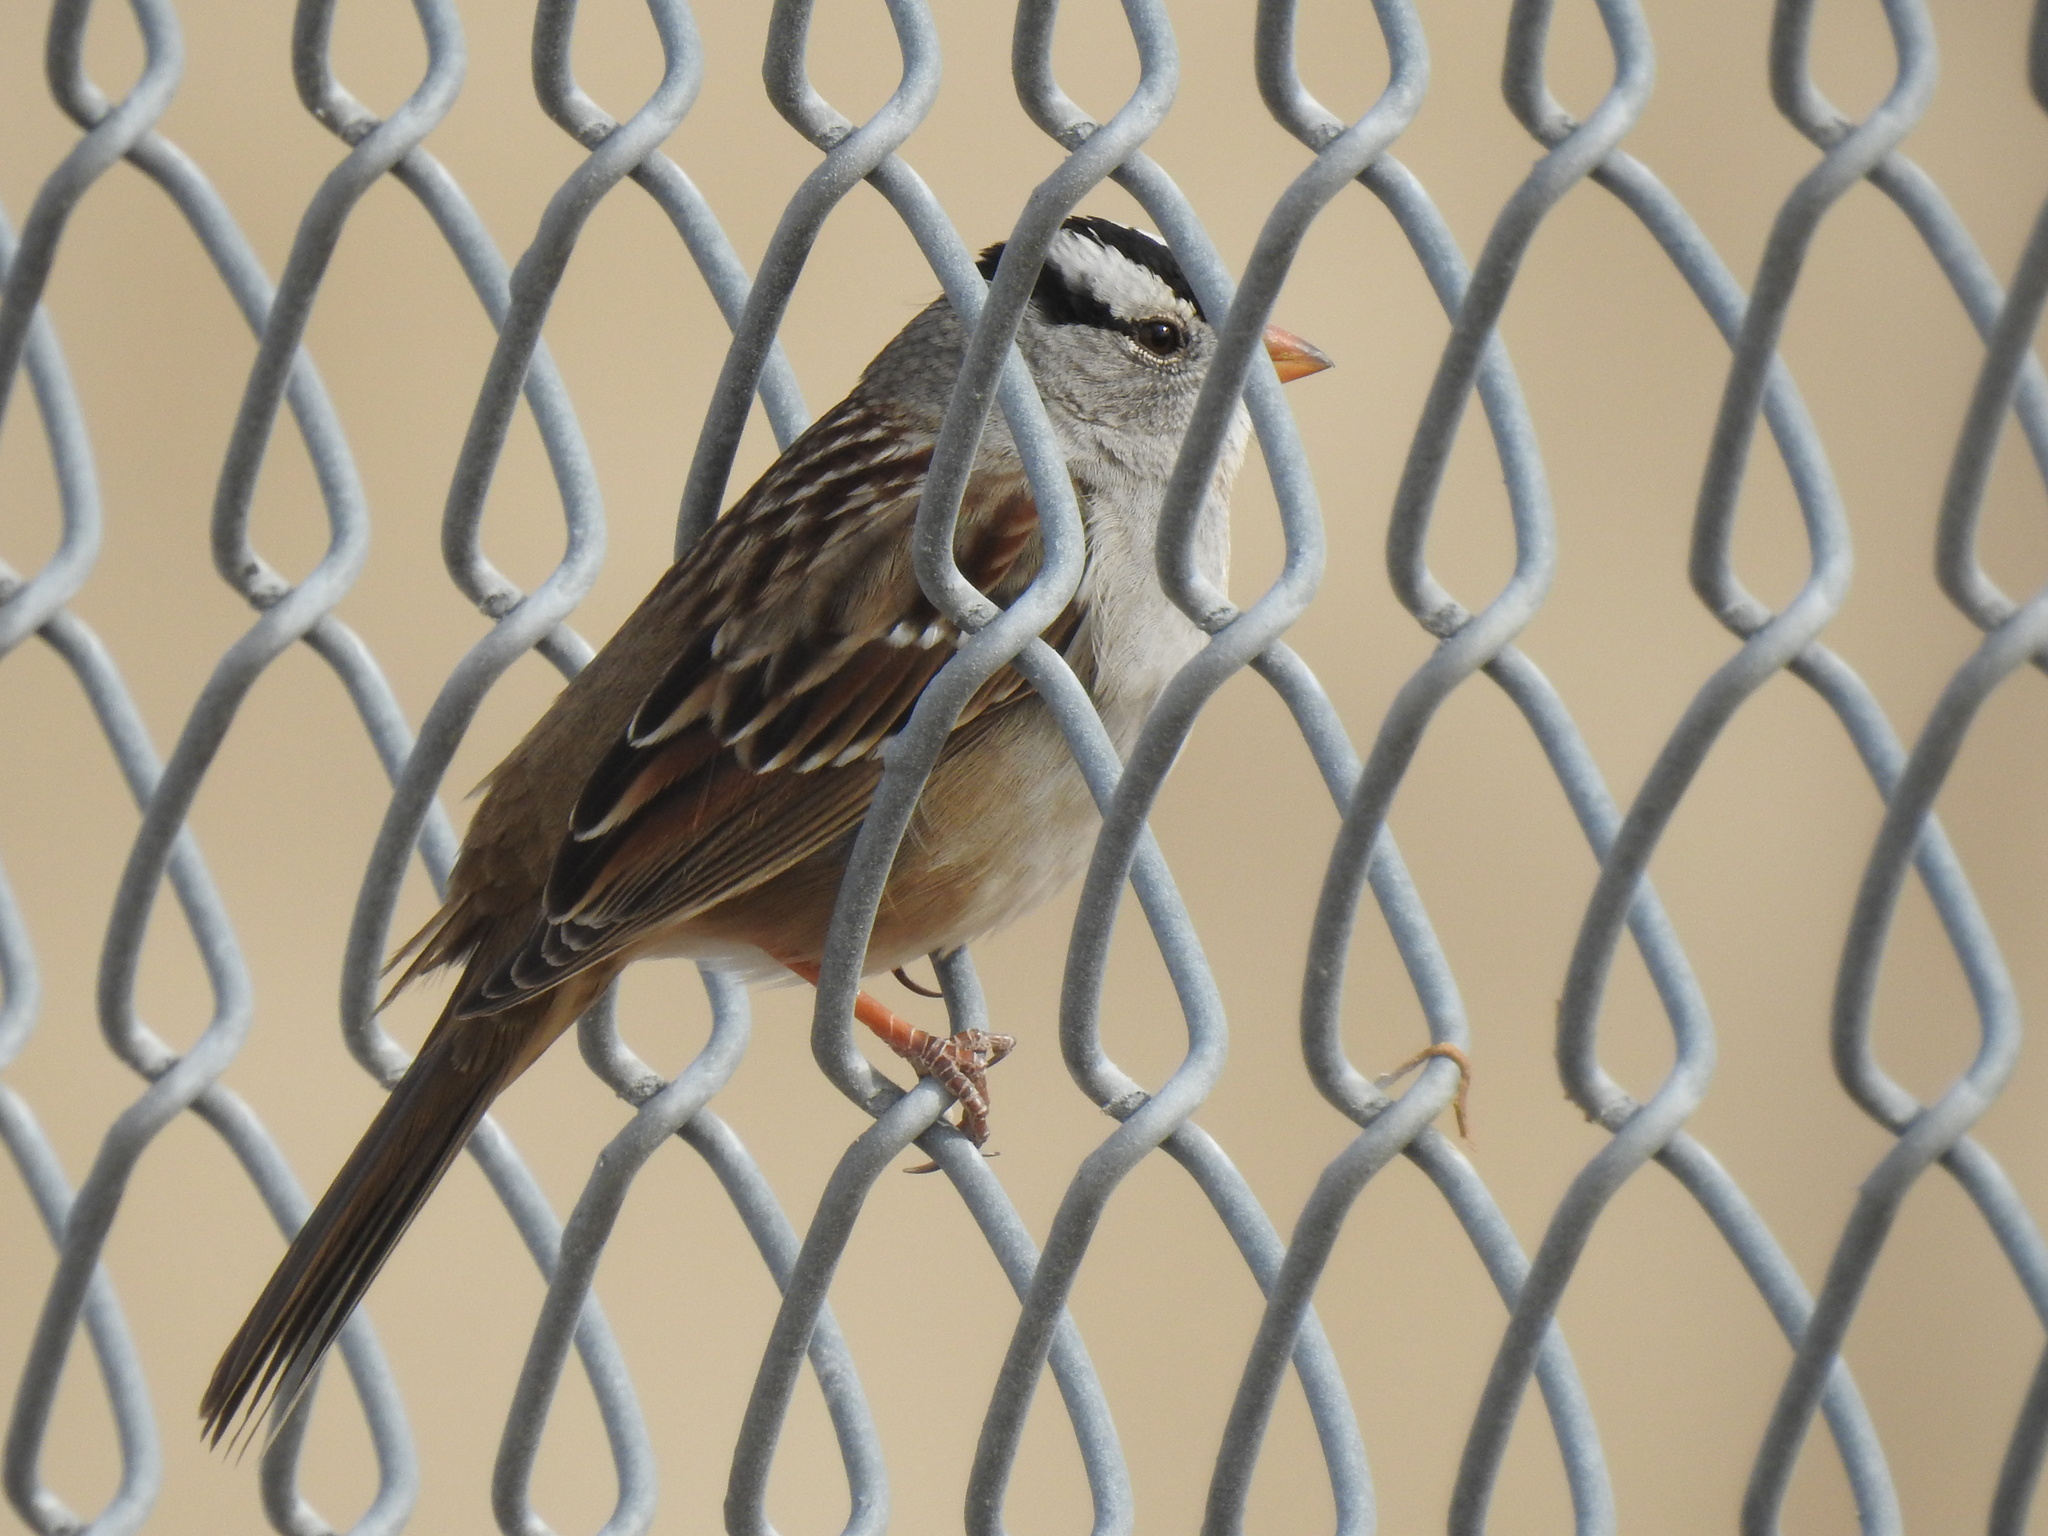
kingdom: Animalia
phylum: Chordata
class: Aves
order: Passeriformes
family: Passerellidae
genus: Zonotrichia
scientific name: Zonotrichia leucophrys
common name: White-crowned sparrow
